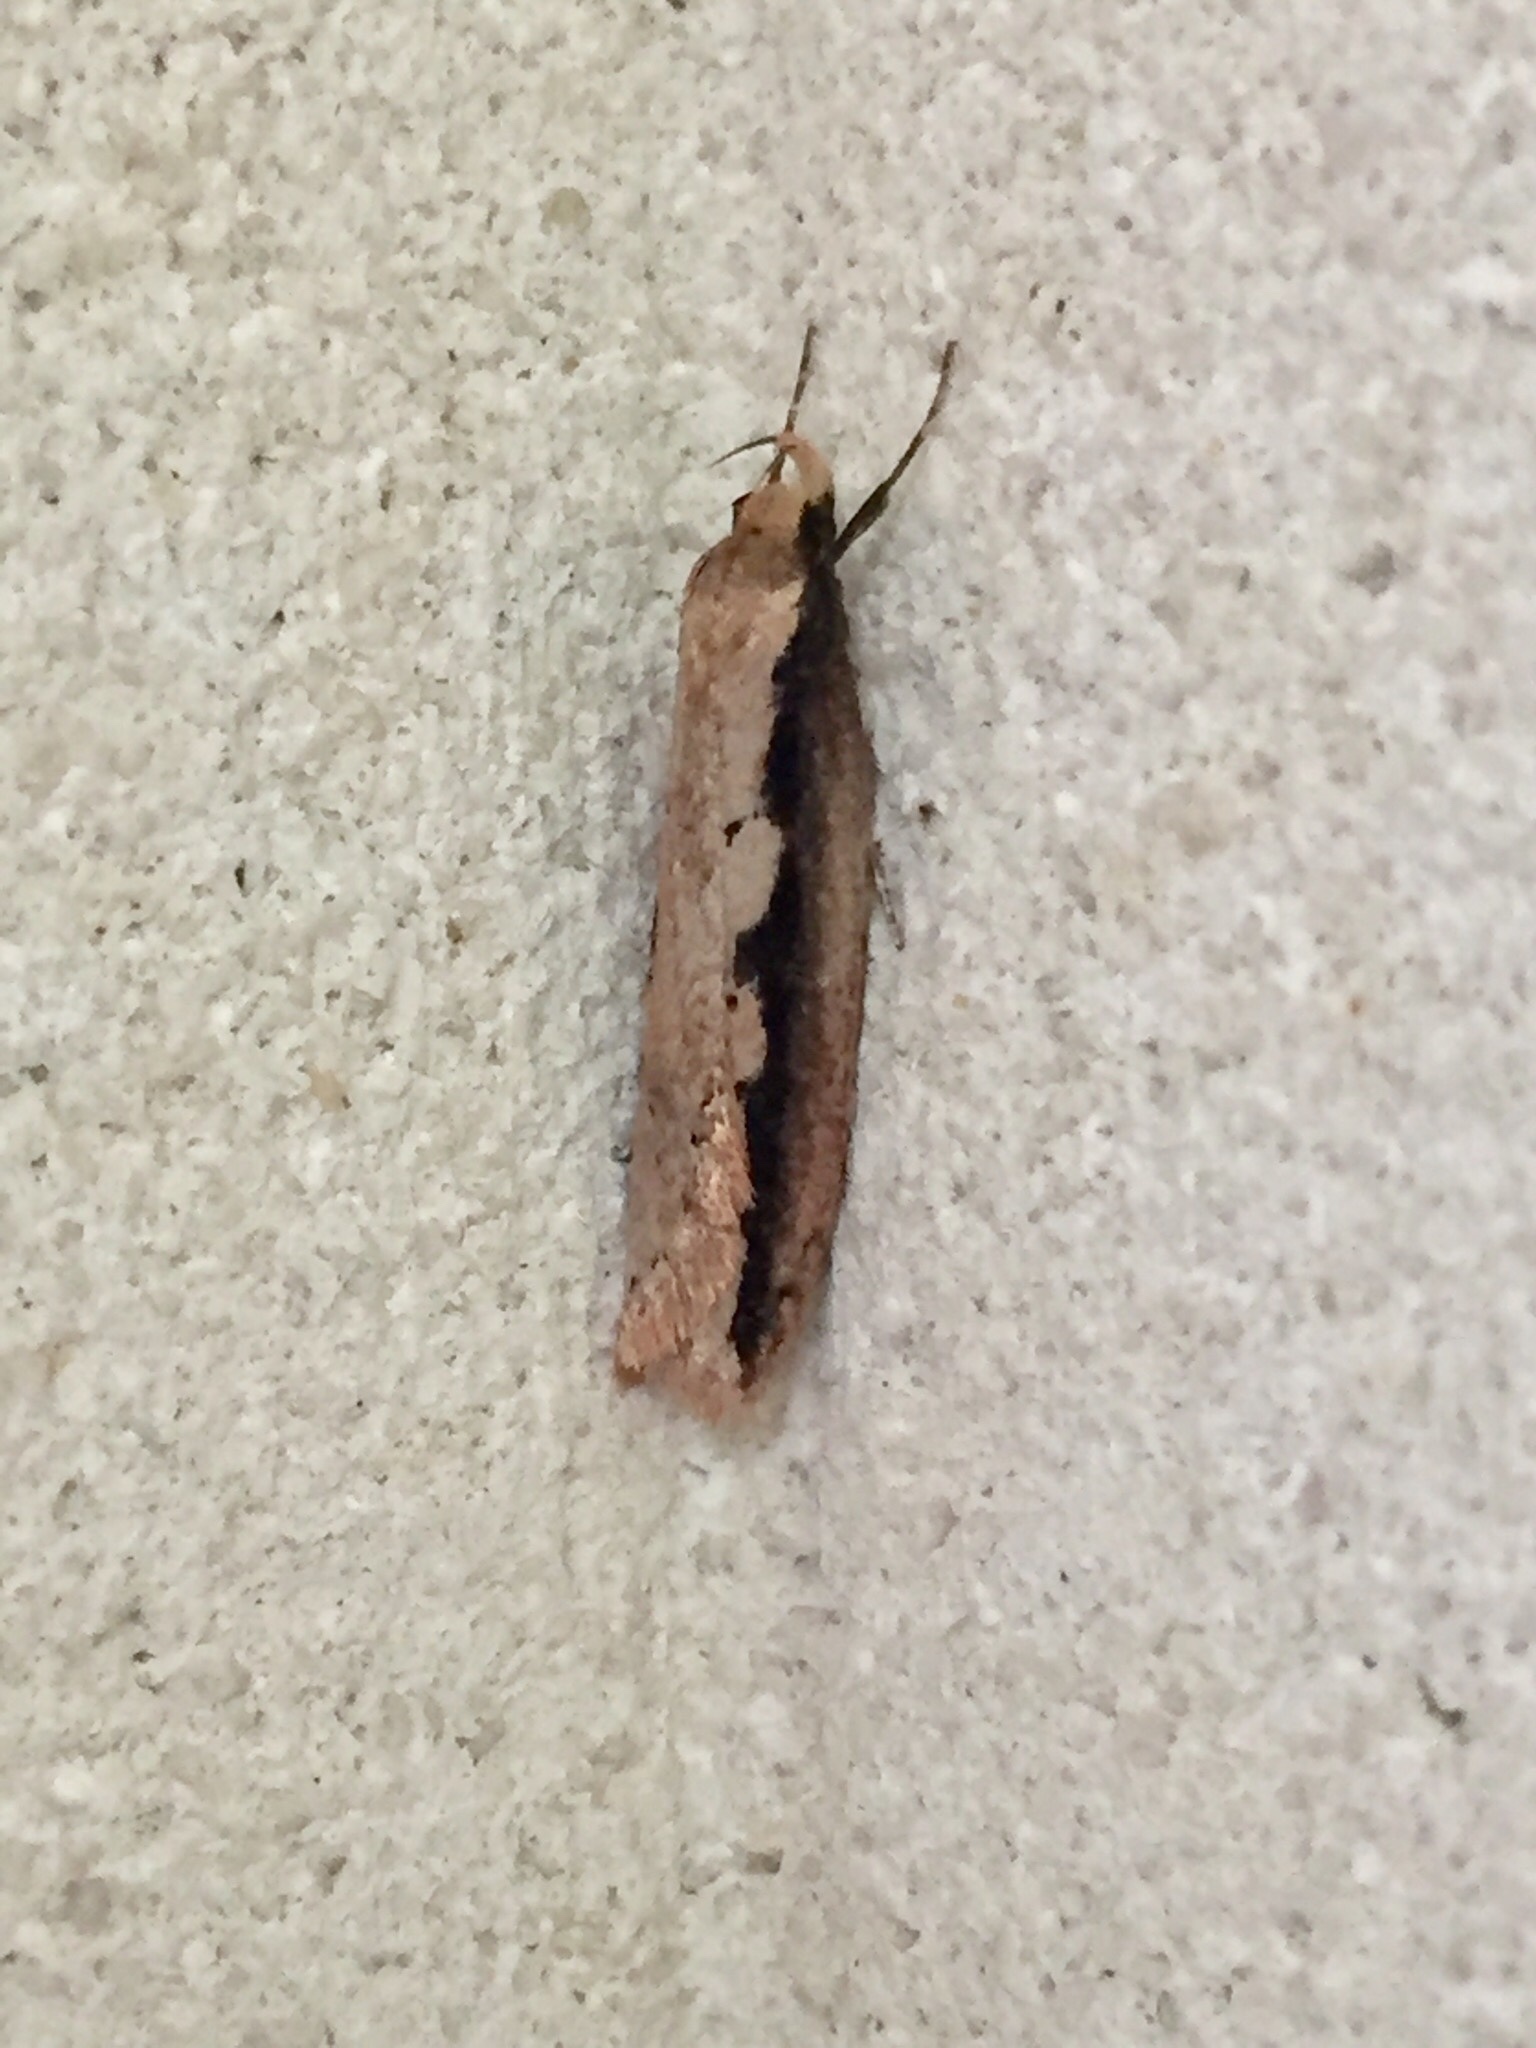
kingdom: Animalia
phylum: Arthropoda
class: Insecta
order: Lepidoptera
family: Oecophoridae
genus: Leptocroca
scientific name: Leptocroca sanguinolenta
